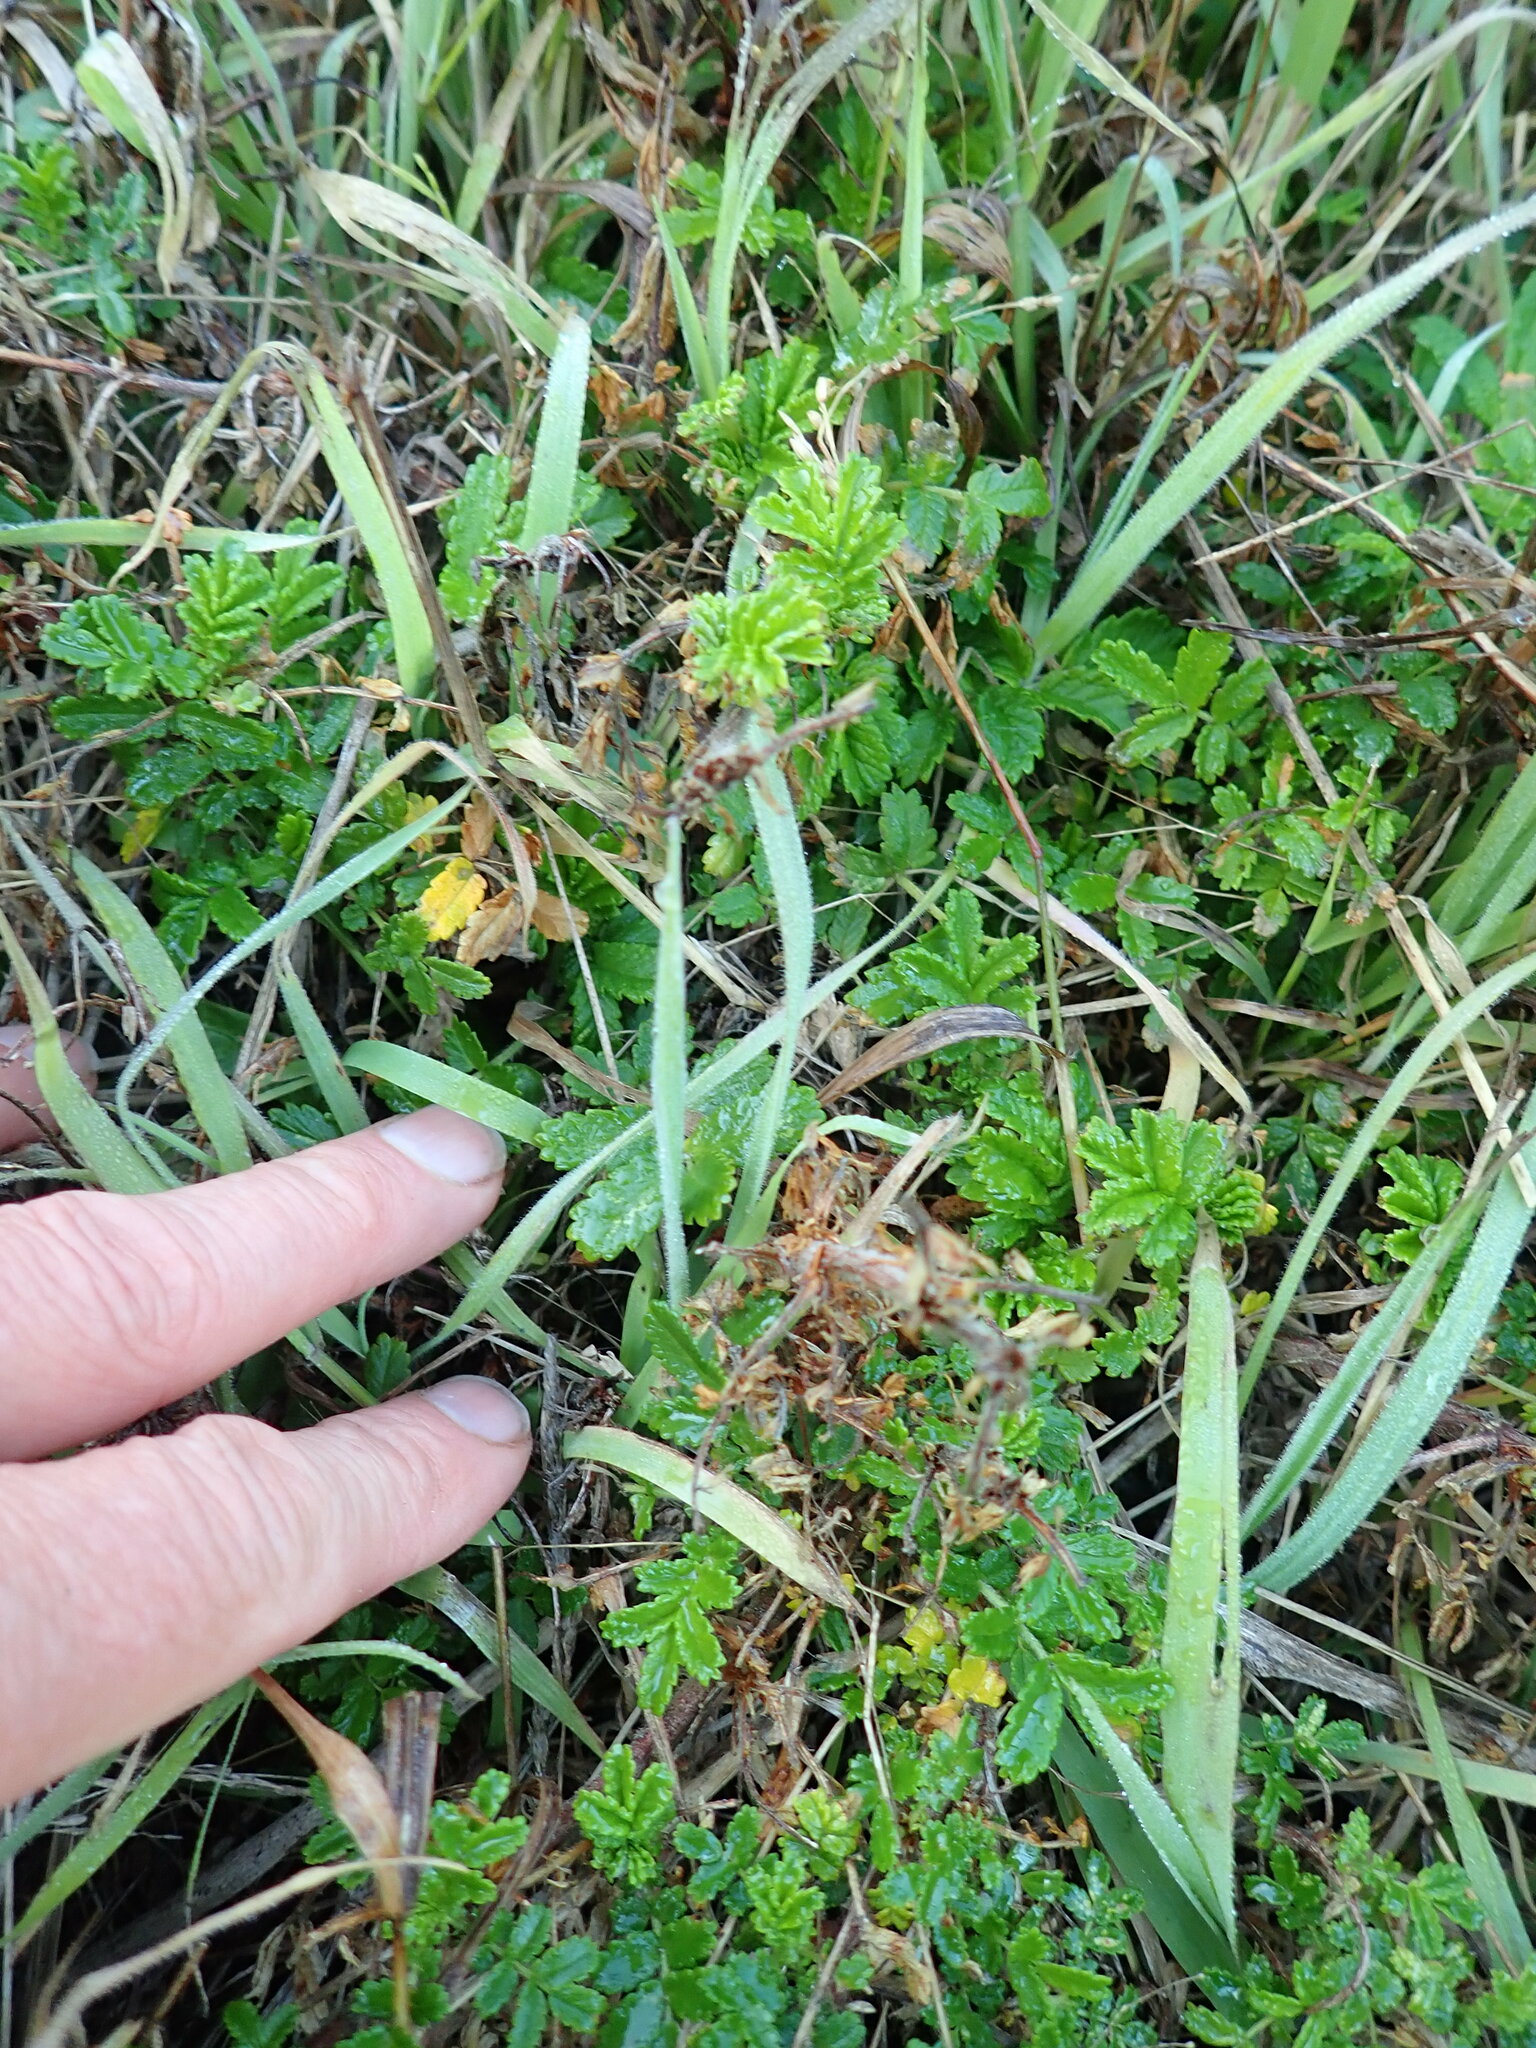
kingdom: Plantae
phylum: Tracheophyta
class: Magnoliopsida
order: Rosales
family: Rosaceae
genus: Acaena
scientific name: Acaena novae-zelandiae
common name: Pirri-pirri-bur
